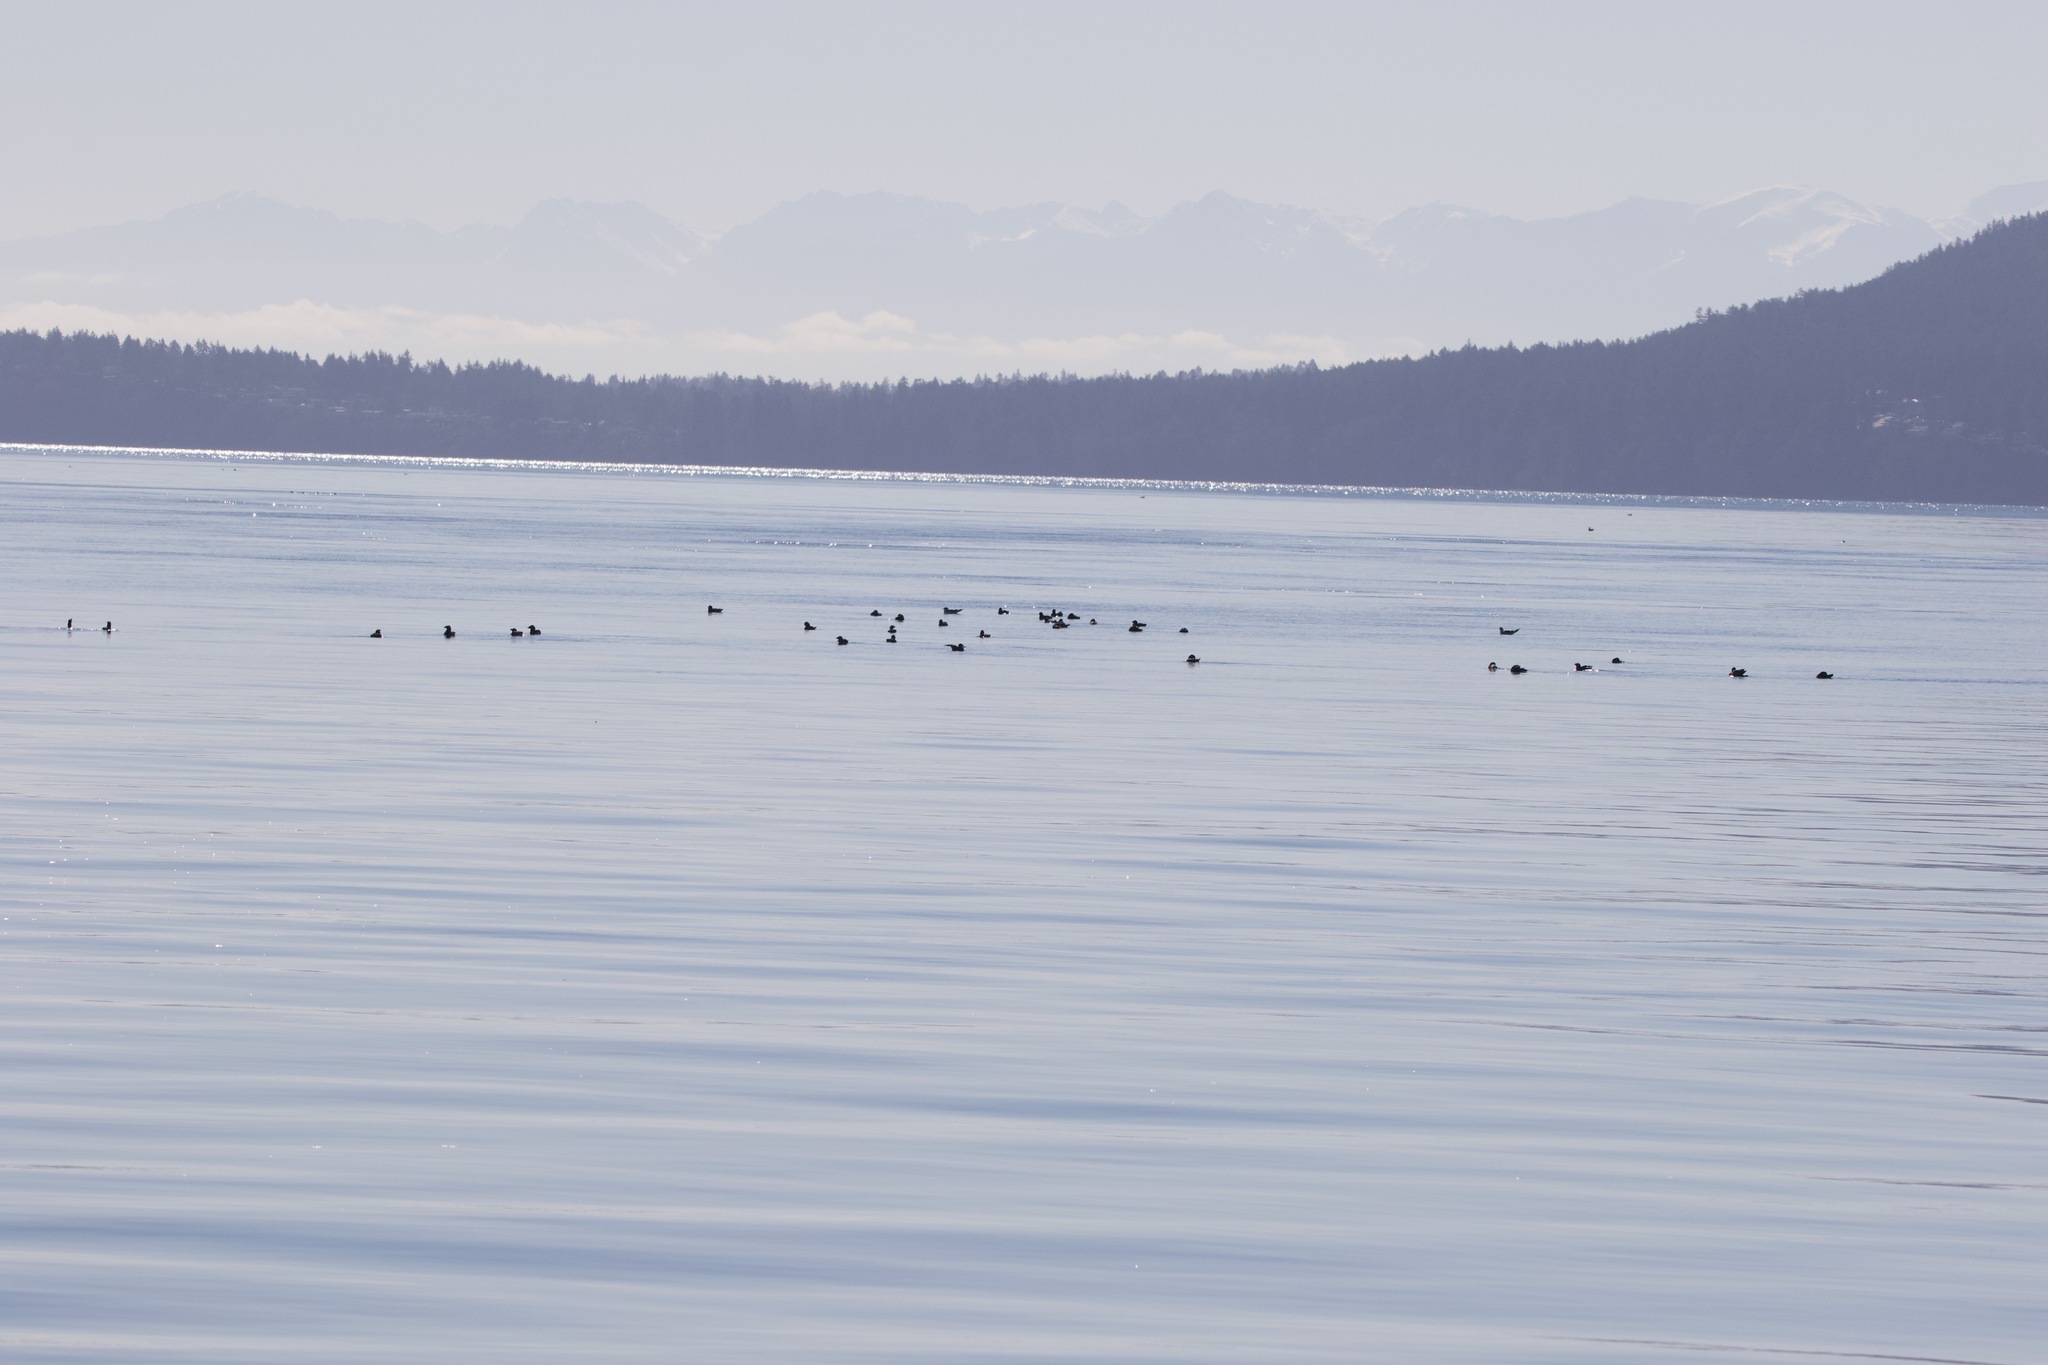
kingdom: Animalia
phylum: Chordata
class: Aves
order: Charadriiformes
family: Alcidae
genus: Cerorhinca
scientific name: Cerorhinca monocerata
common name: Rhinoceros auklet
